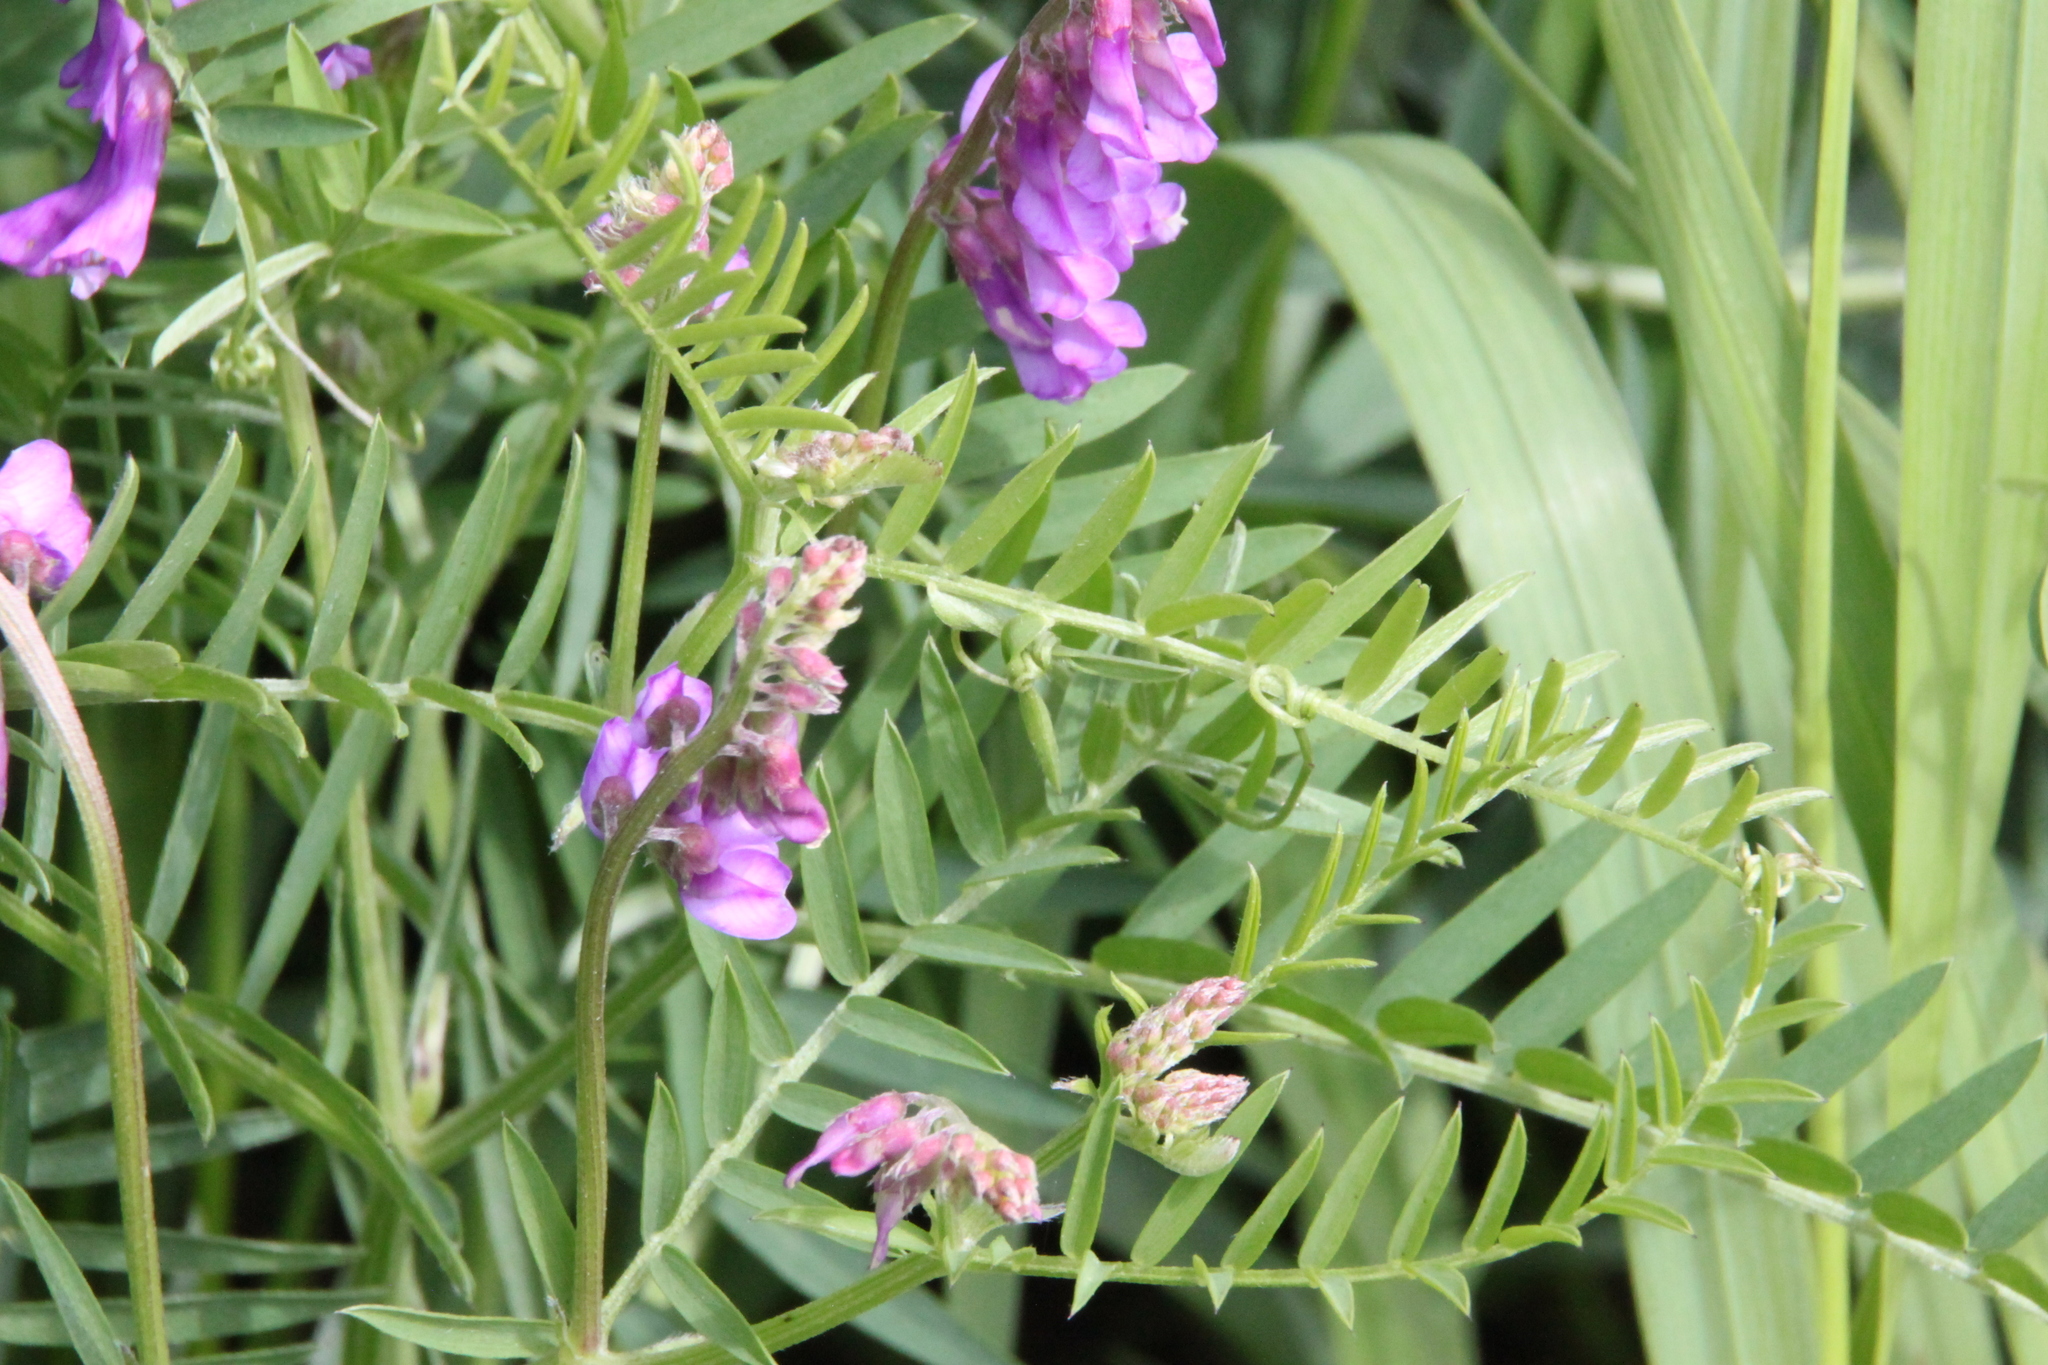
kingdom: Plantae
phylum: Tracheophyta
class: Magnoliopsida
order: Fabales
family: Fabaceae
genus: Vicia
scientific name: Vicia tenuifolia
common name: Fine-leaved vetch
